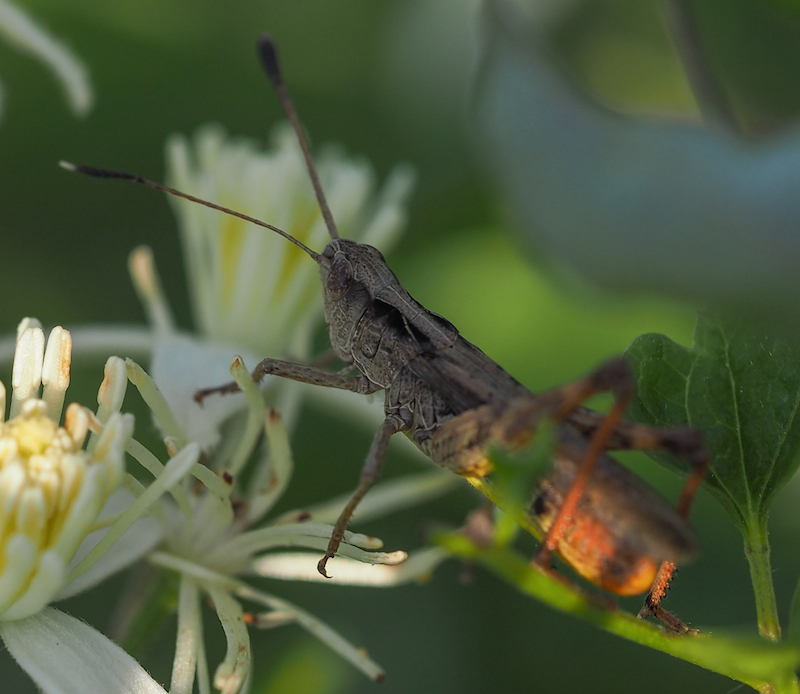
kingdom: Animalia
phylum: Arthropoda
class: Insecta
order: Orthoptera
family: Acrididae
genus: Gomphocerippus
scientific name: Gomphocerippus rufus
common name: Rufous grasshopper
